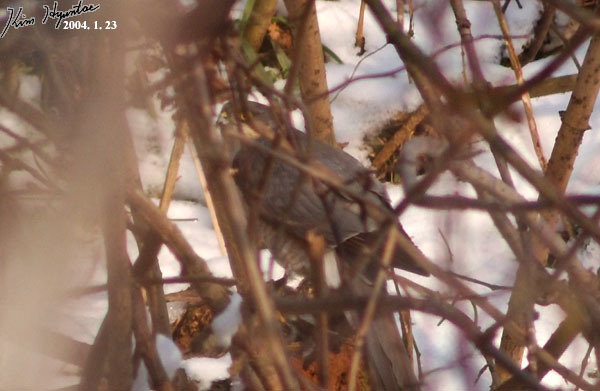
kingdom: Animalia
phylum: Chordata
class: Aves
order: Accipitriformes
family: Accipitridae
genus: Accipiter
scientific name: Accipiter nisus
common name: Eurasian sparrowhawk
